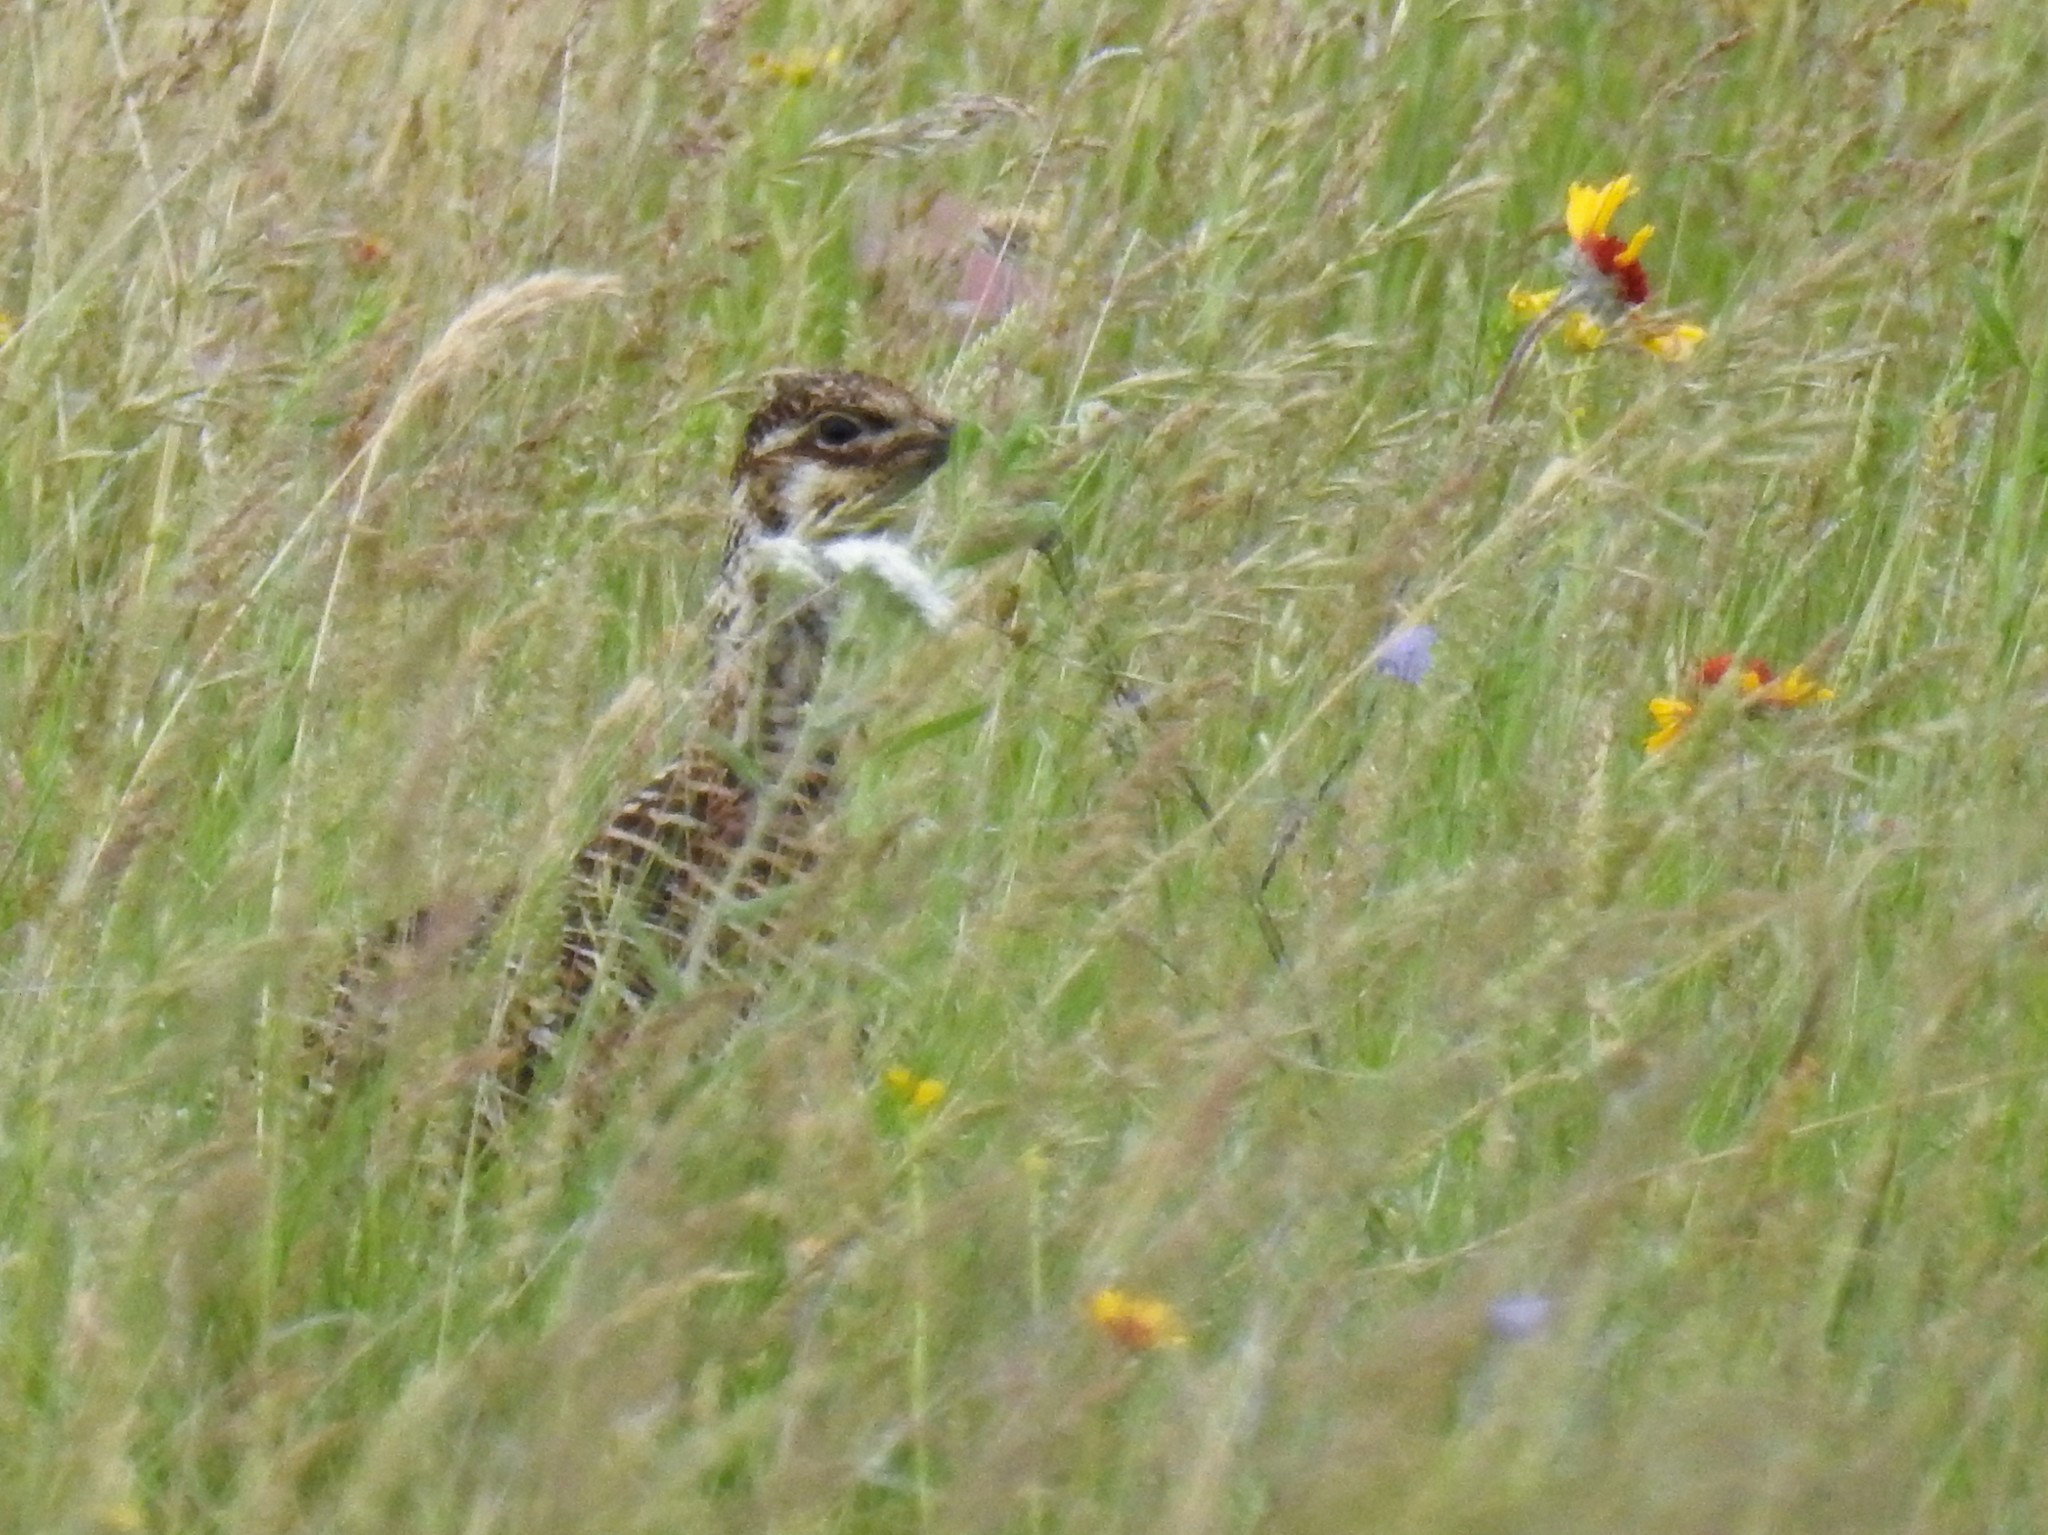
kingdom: Animalia
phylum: Chordata
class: Aves
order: Galliformes
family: Phasianidae
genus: Tympanuchus
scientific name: Tympanuchus cupido
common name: Greater prairie chicken
